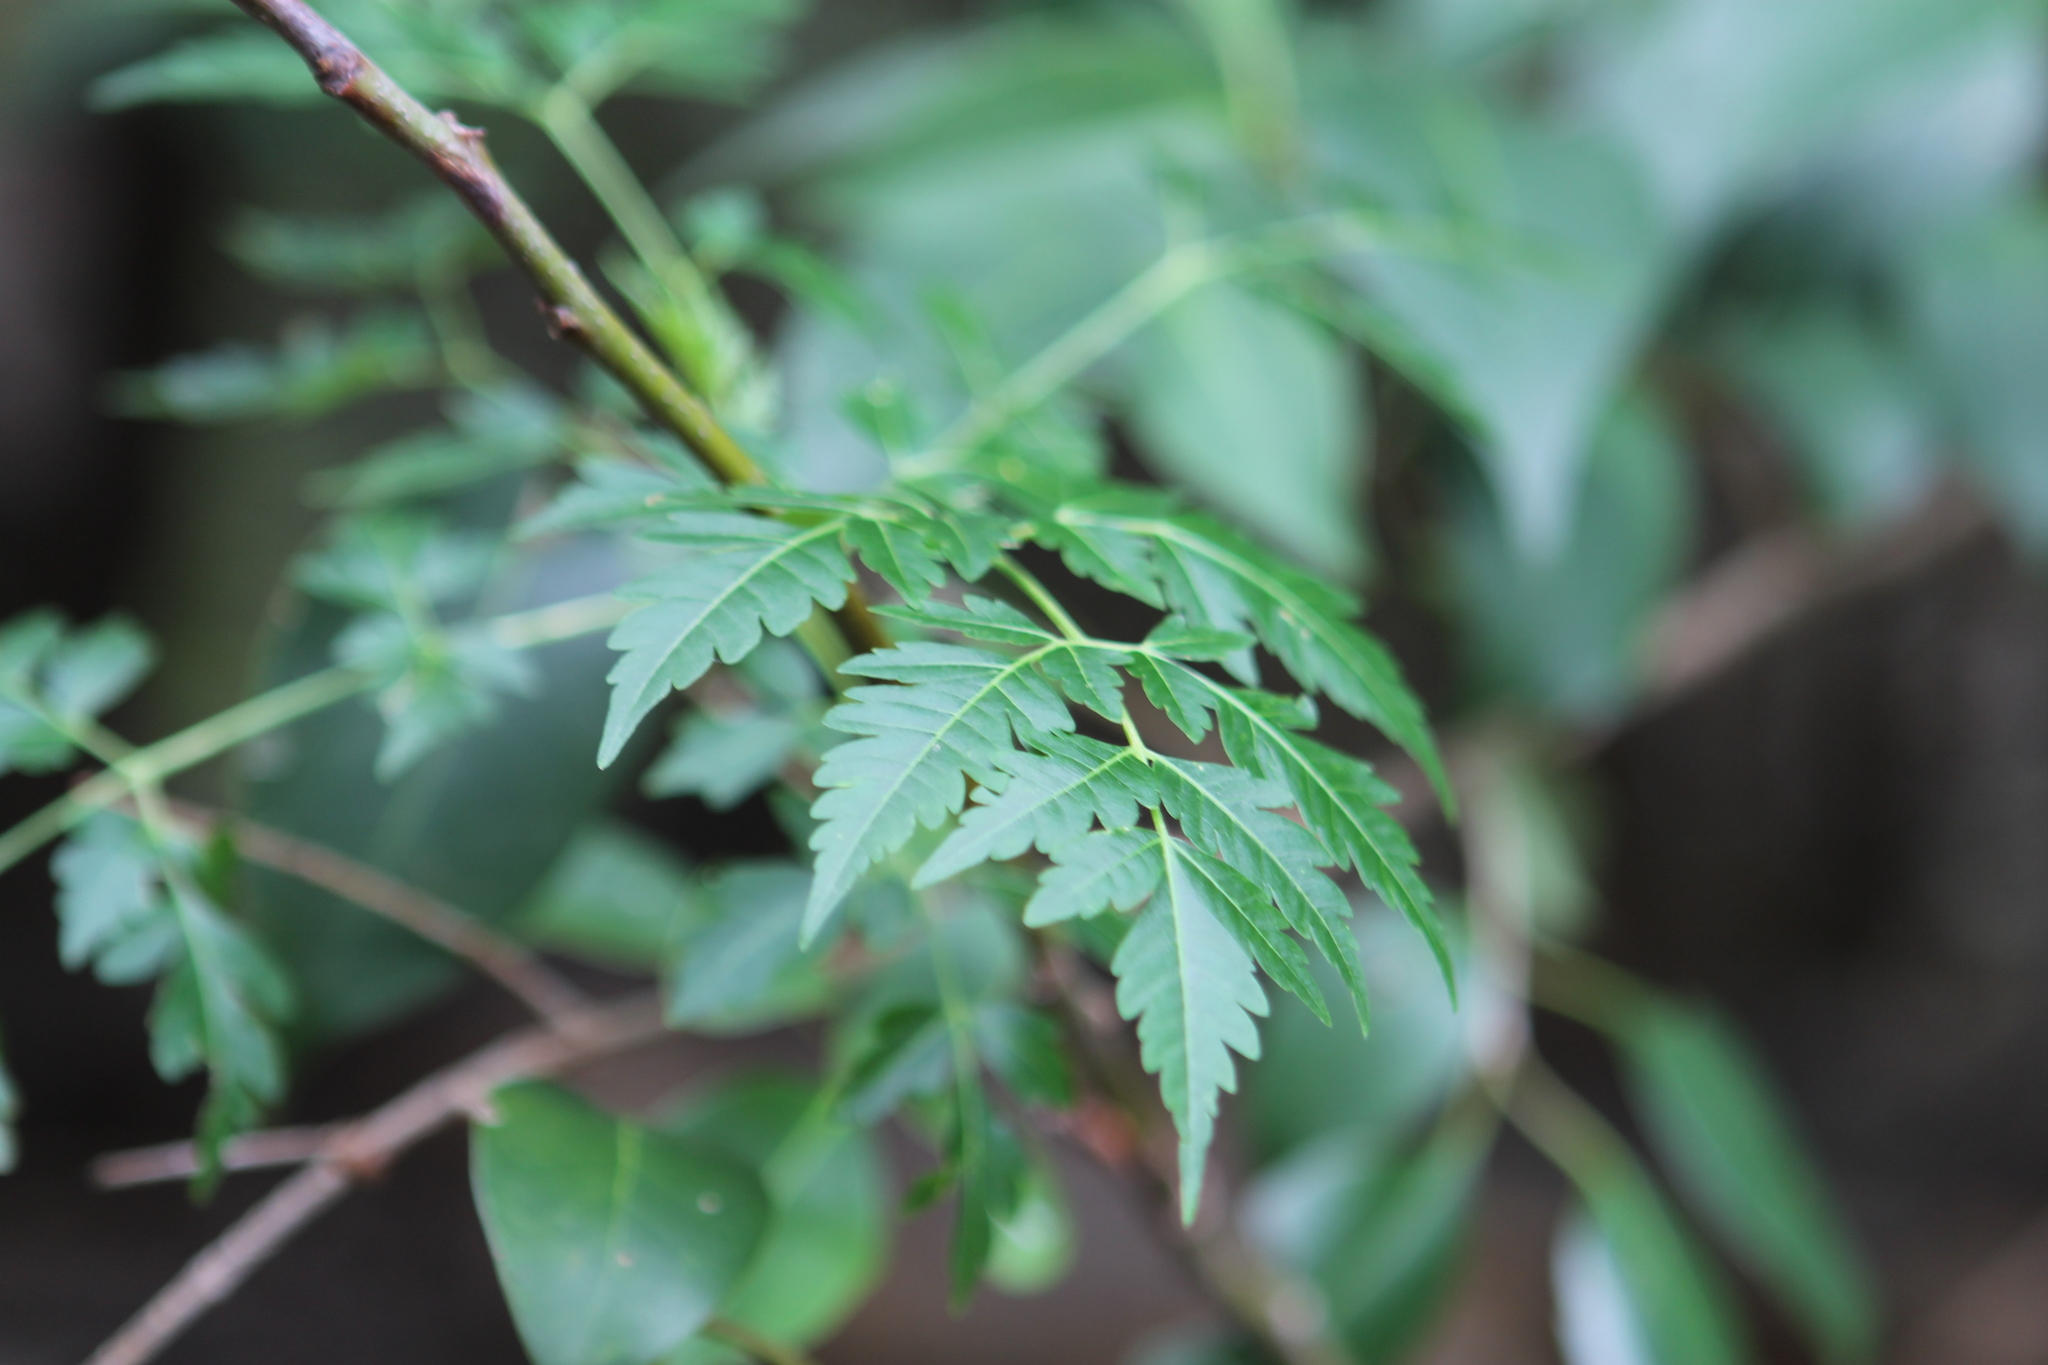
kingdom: Plantae
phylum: Tracheophyta
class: Magnoliopsida
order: Sapindales
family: Meliaceae
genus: Melia
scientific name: Melia azedarach
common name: Chinaberrytree
